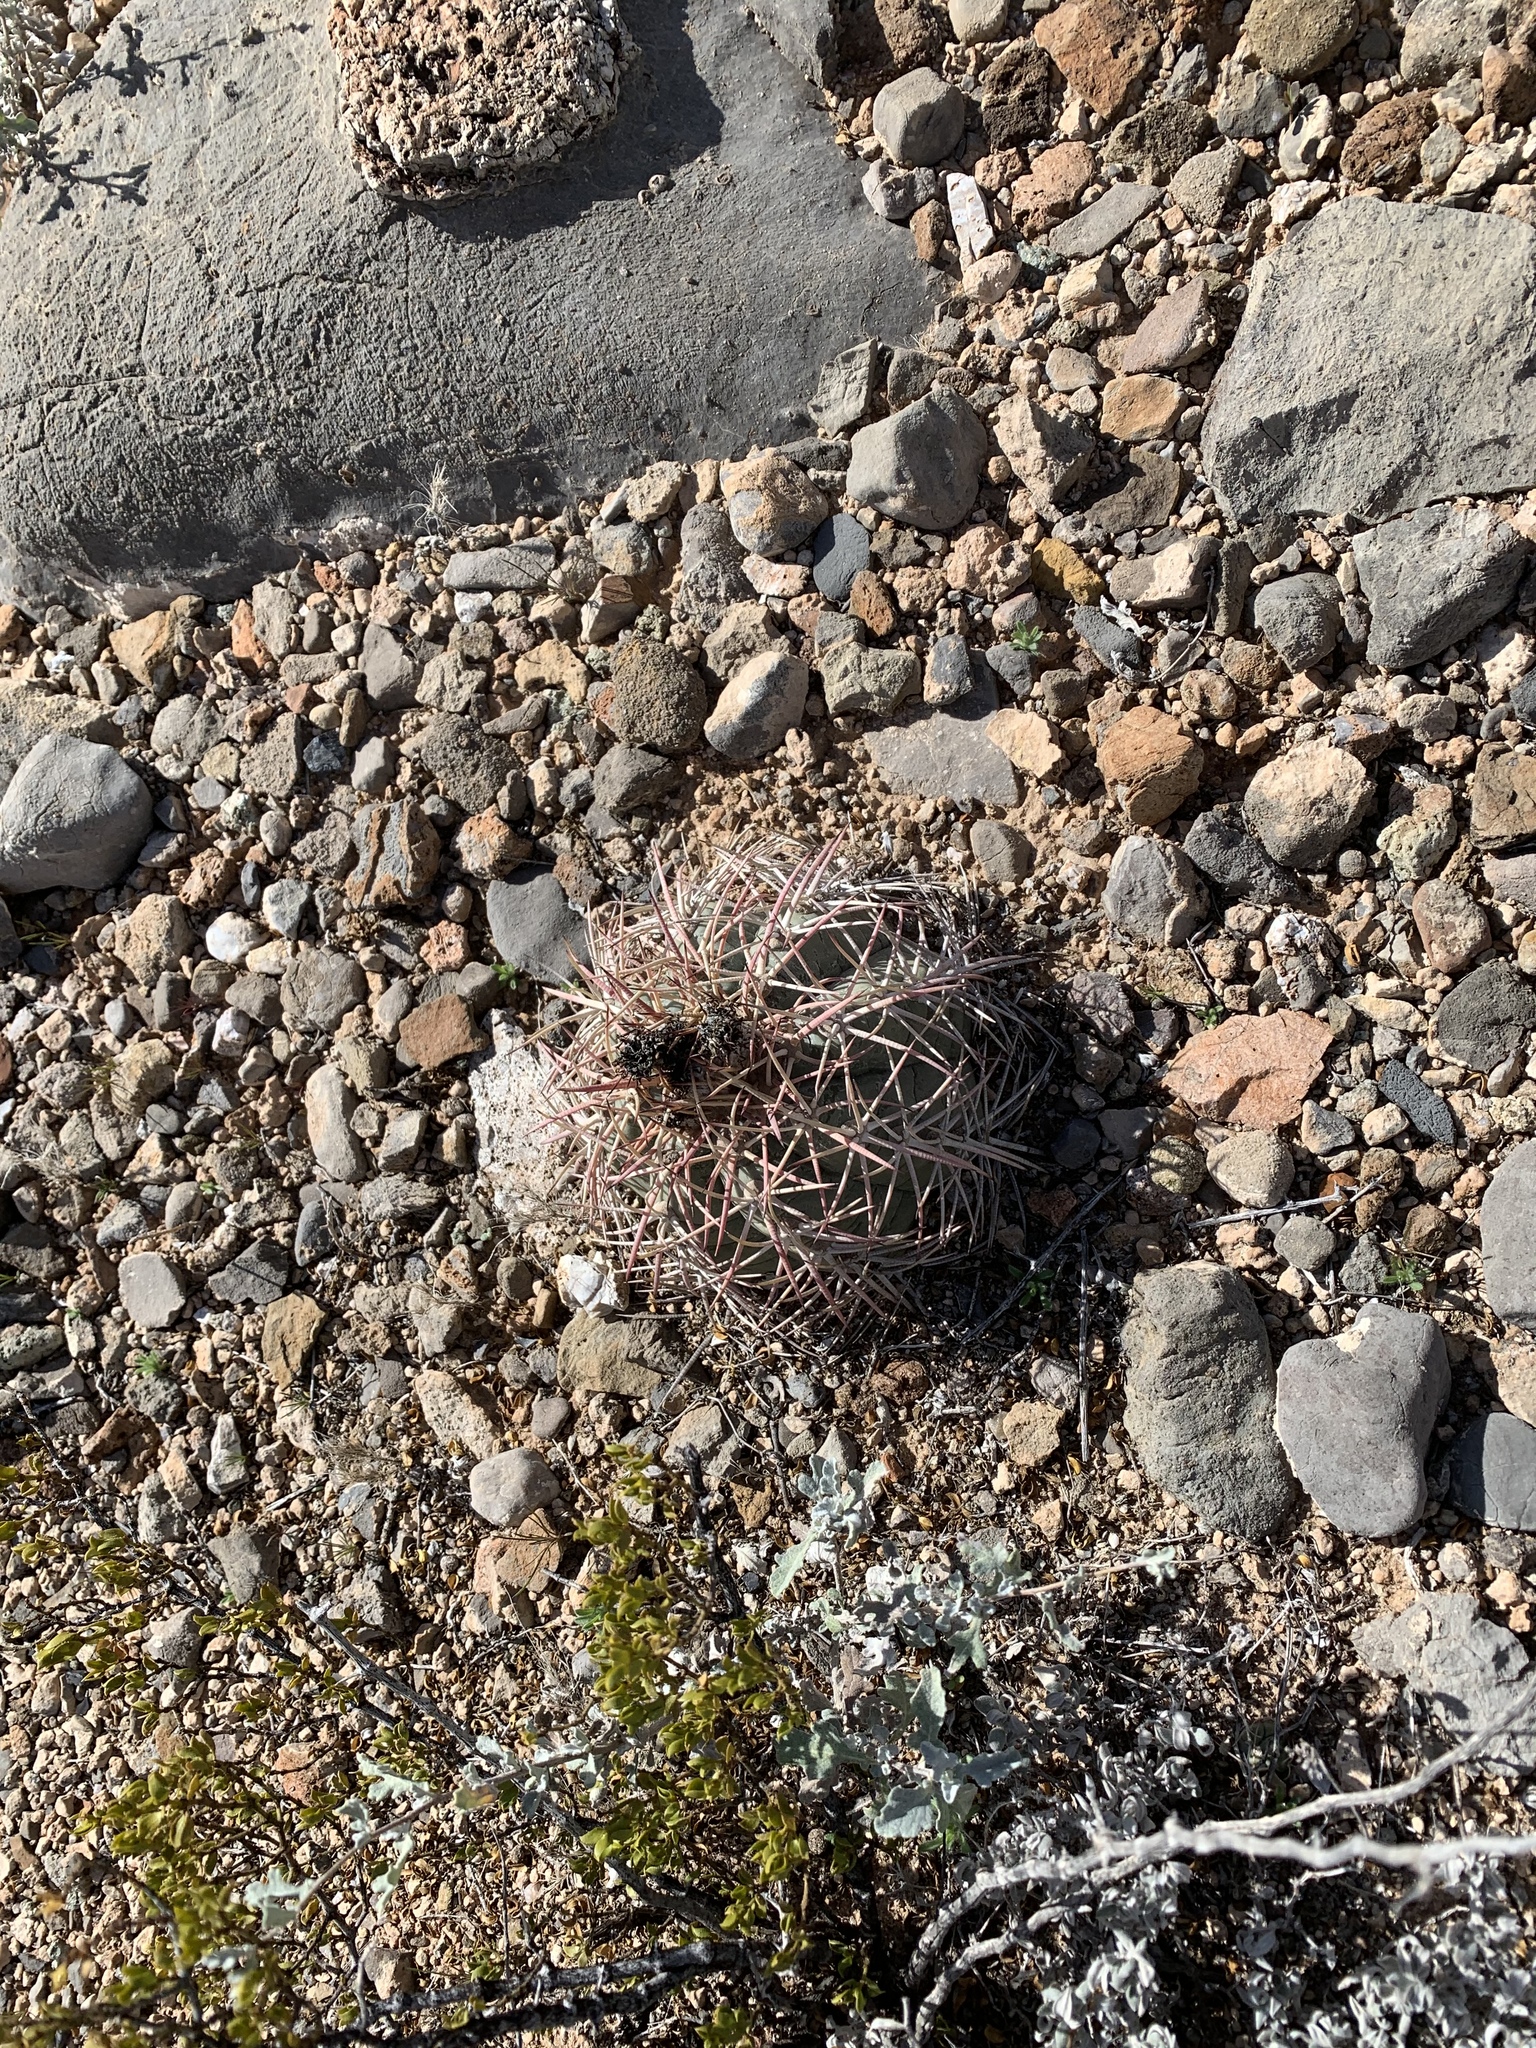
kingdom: Plantae
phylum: Tracheophyta
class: Magnoliopsida
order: Caryophyllales
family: Cactaceae
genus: Echinocactus
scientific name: Echinocactus horizonthalonius
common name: Devilshead
